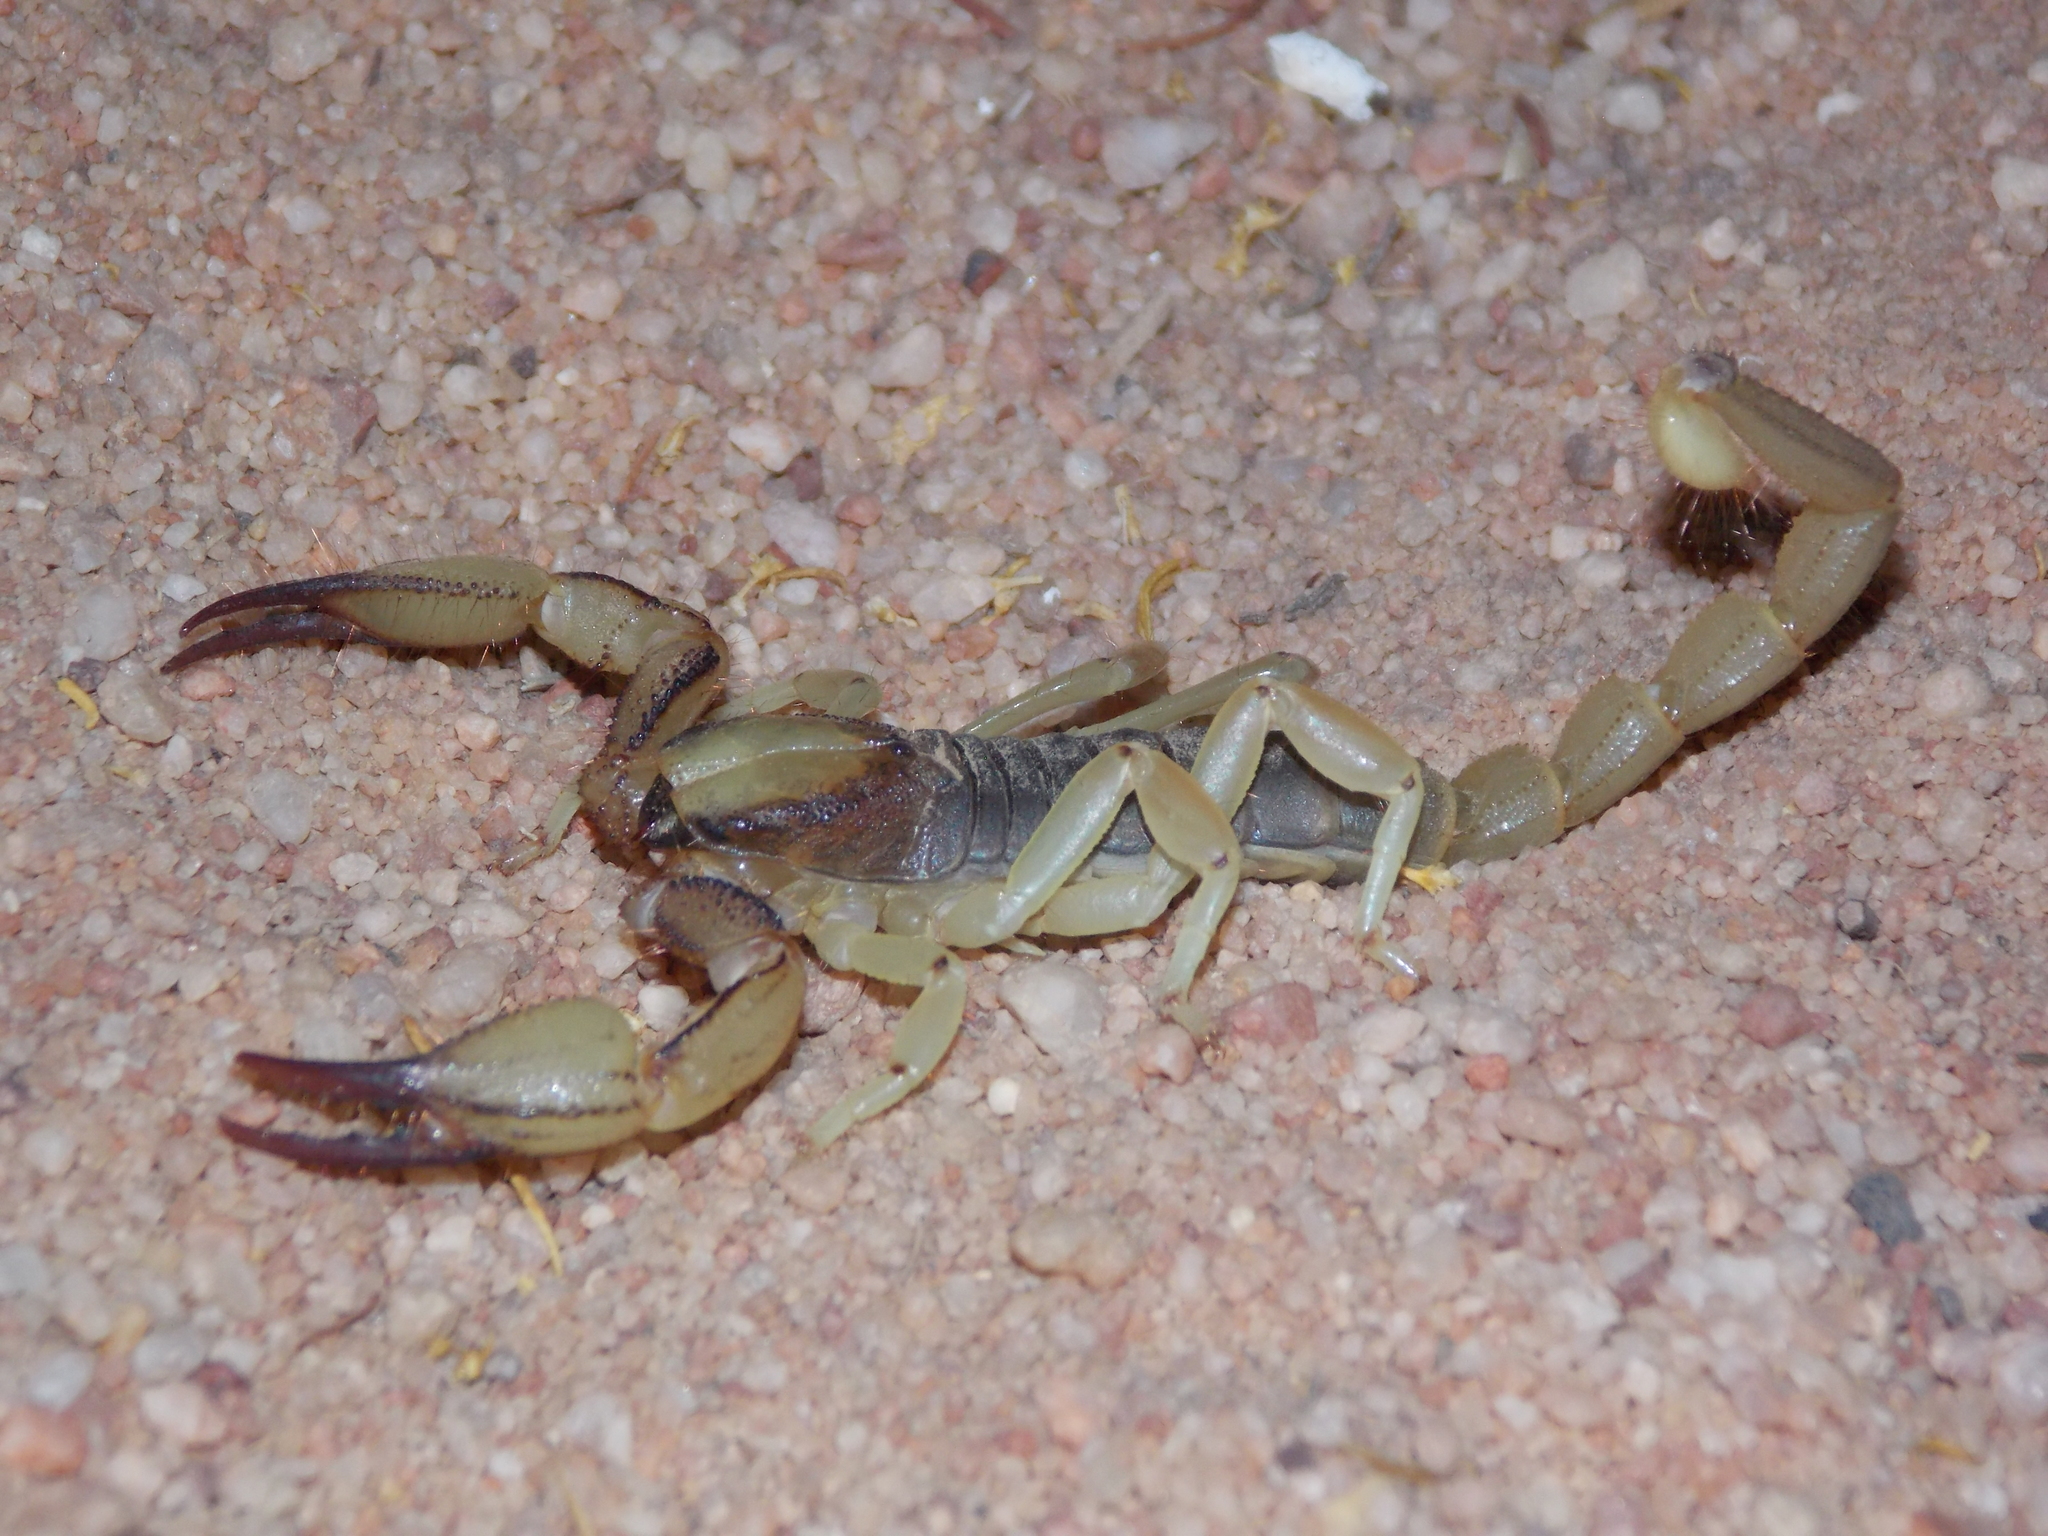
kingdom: Animalia
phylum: Arthropoda
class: Arachnida
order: Scorpiones
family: Scorpionidae
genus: Opistophthalmus
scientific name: Opistophthalmus leipoldti
